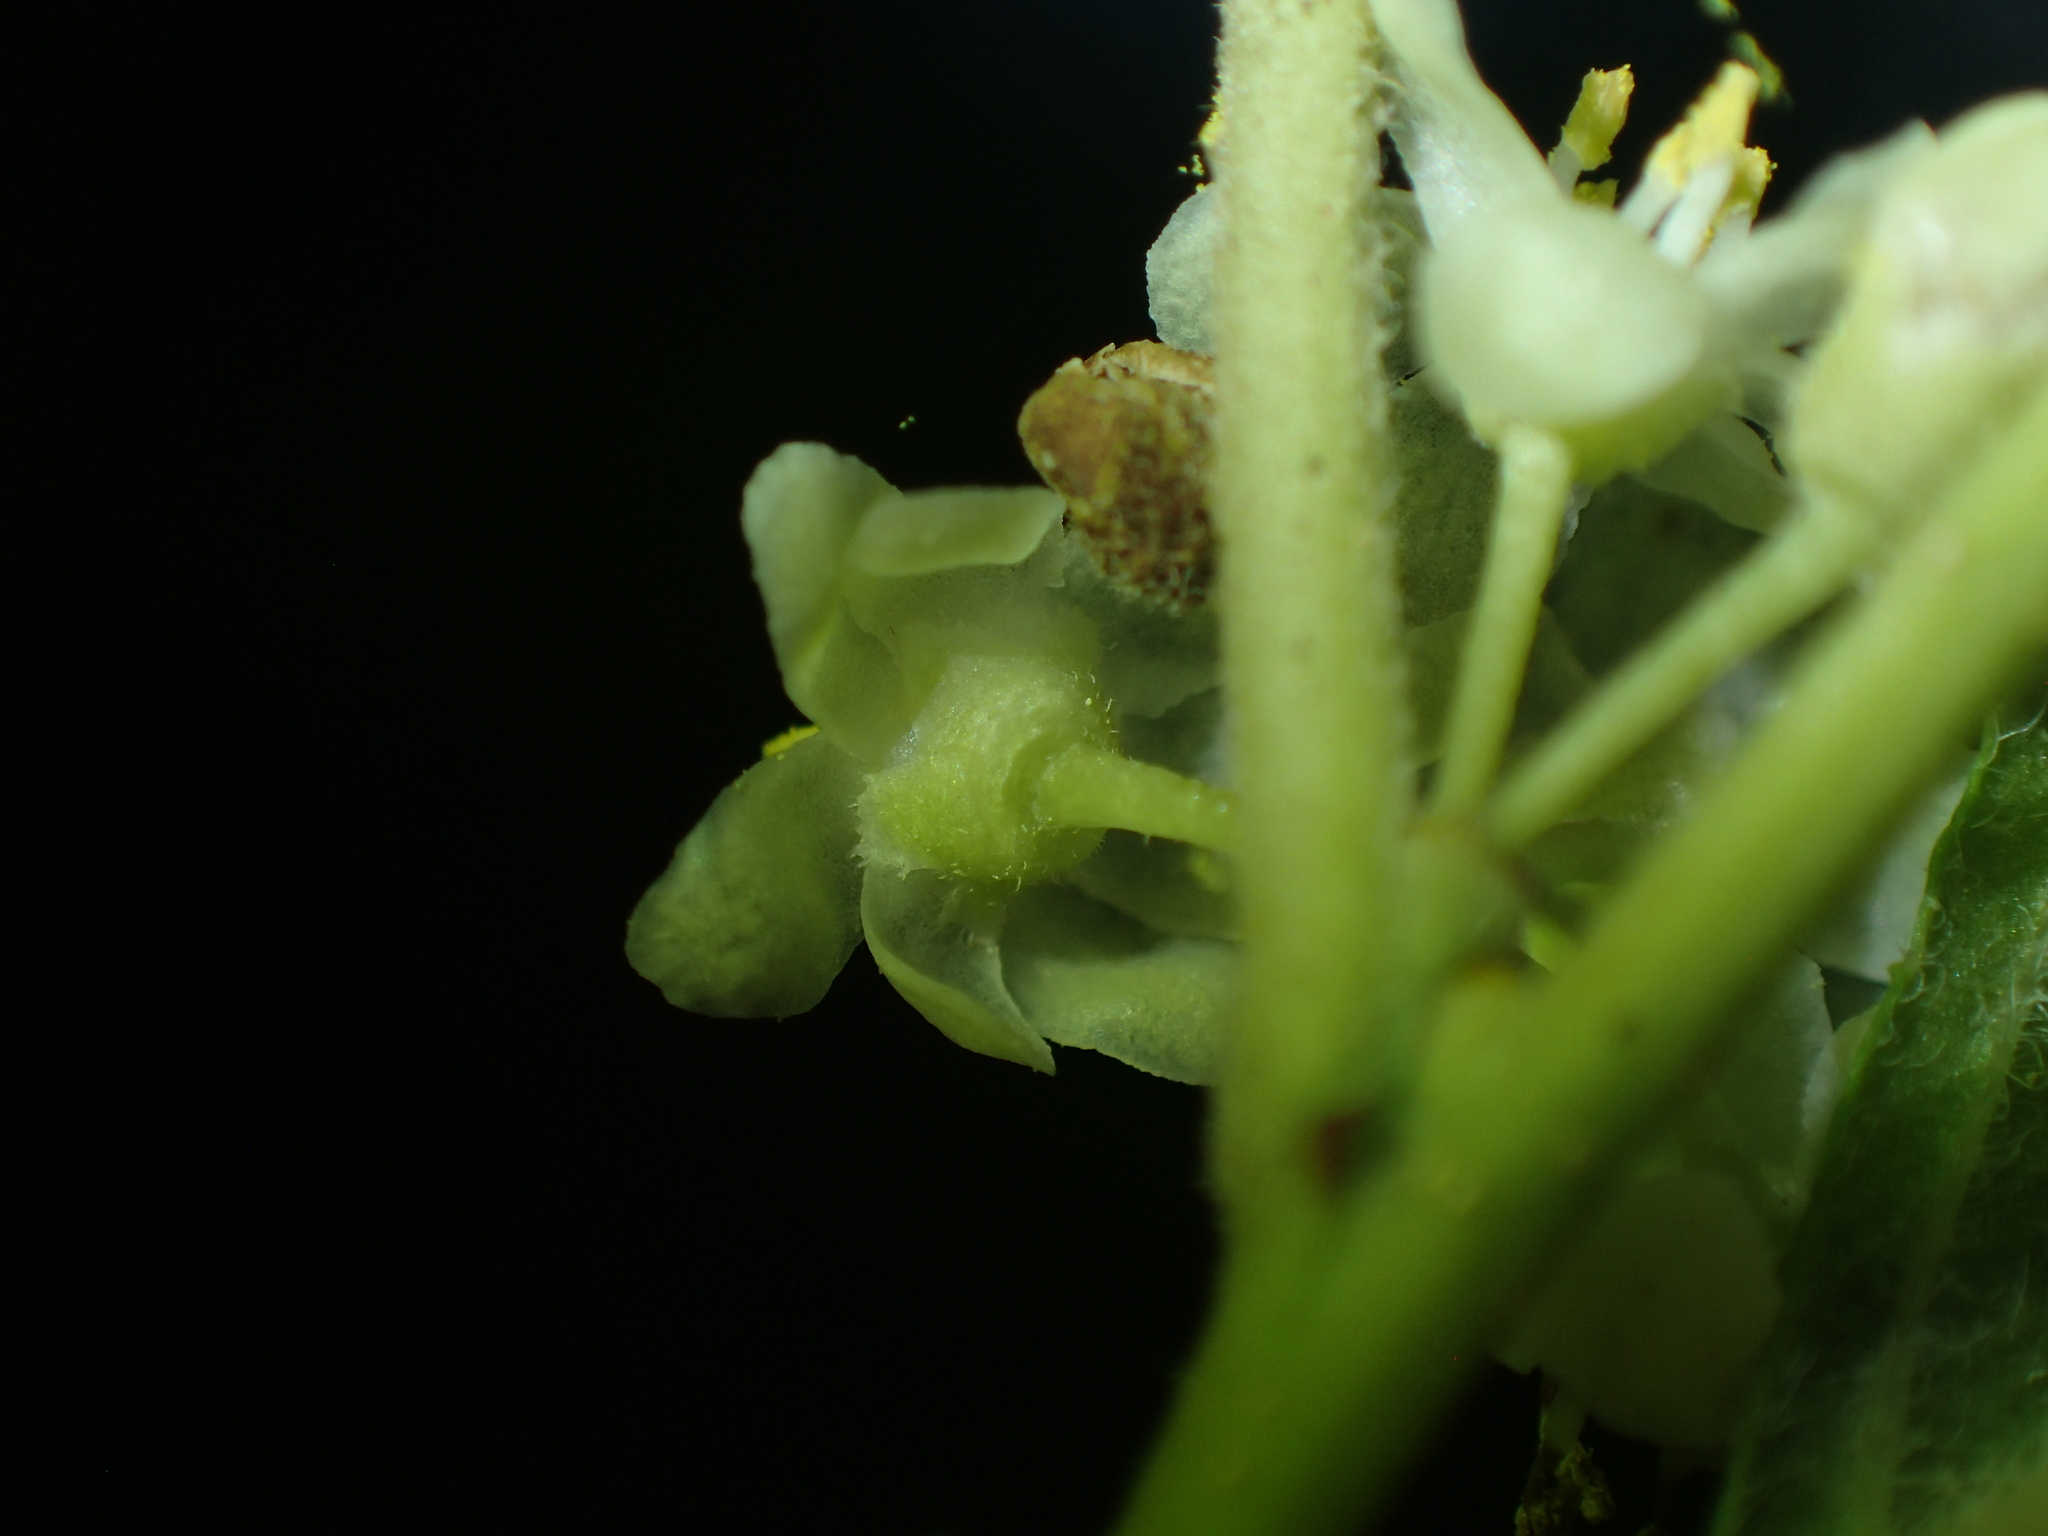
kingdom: Plantae
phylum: Tracheophyta
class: Magnoliopsida
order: Aquifoliales
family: Aquifoliaceae
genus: Ilex
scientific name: Ilex verticillata
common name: Virginia winterberry
